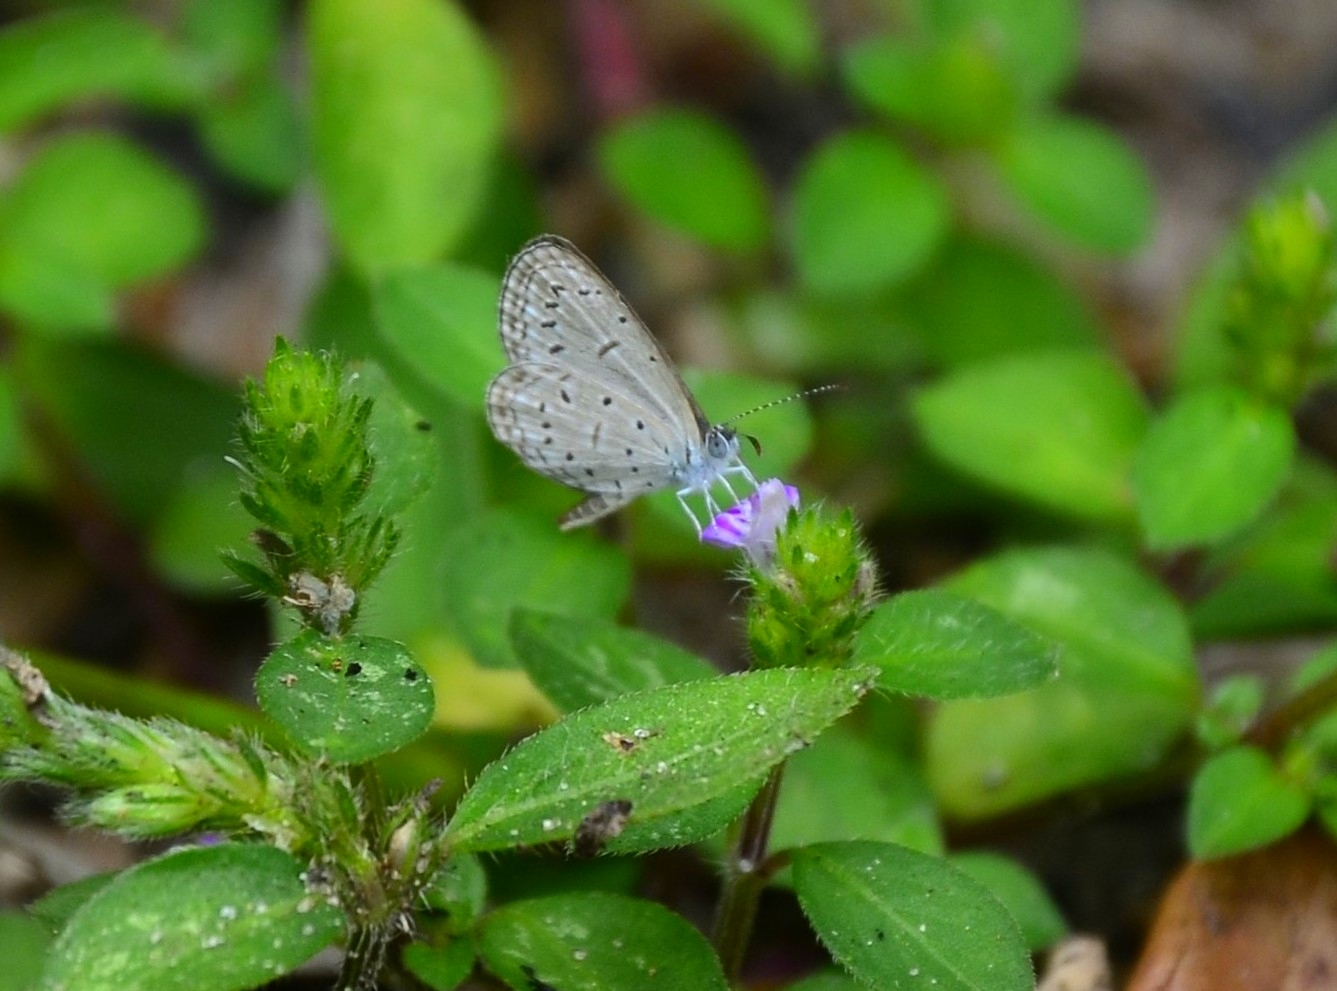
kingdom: Animalia
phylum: Arthropoda
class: Insecta
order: Lepidoptera
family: Lycaenidae
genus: Zizula
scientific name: Zizula hylax
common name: Gaika blue
